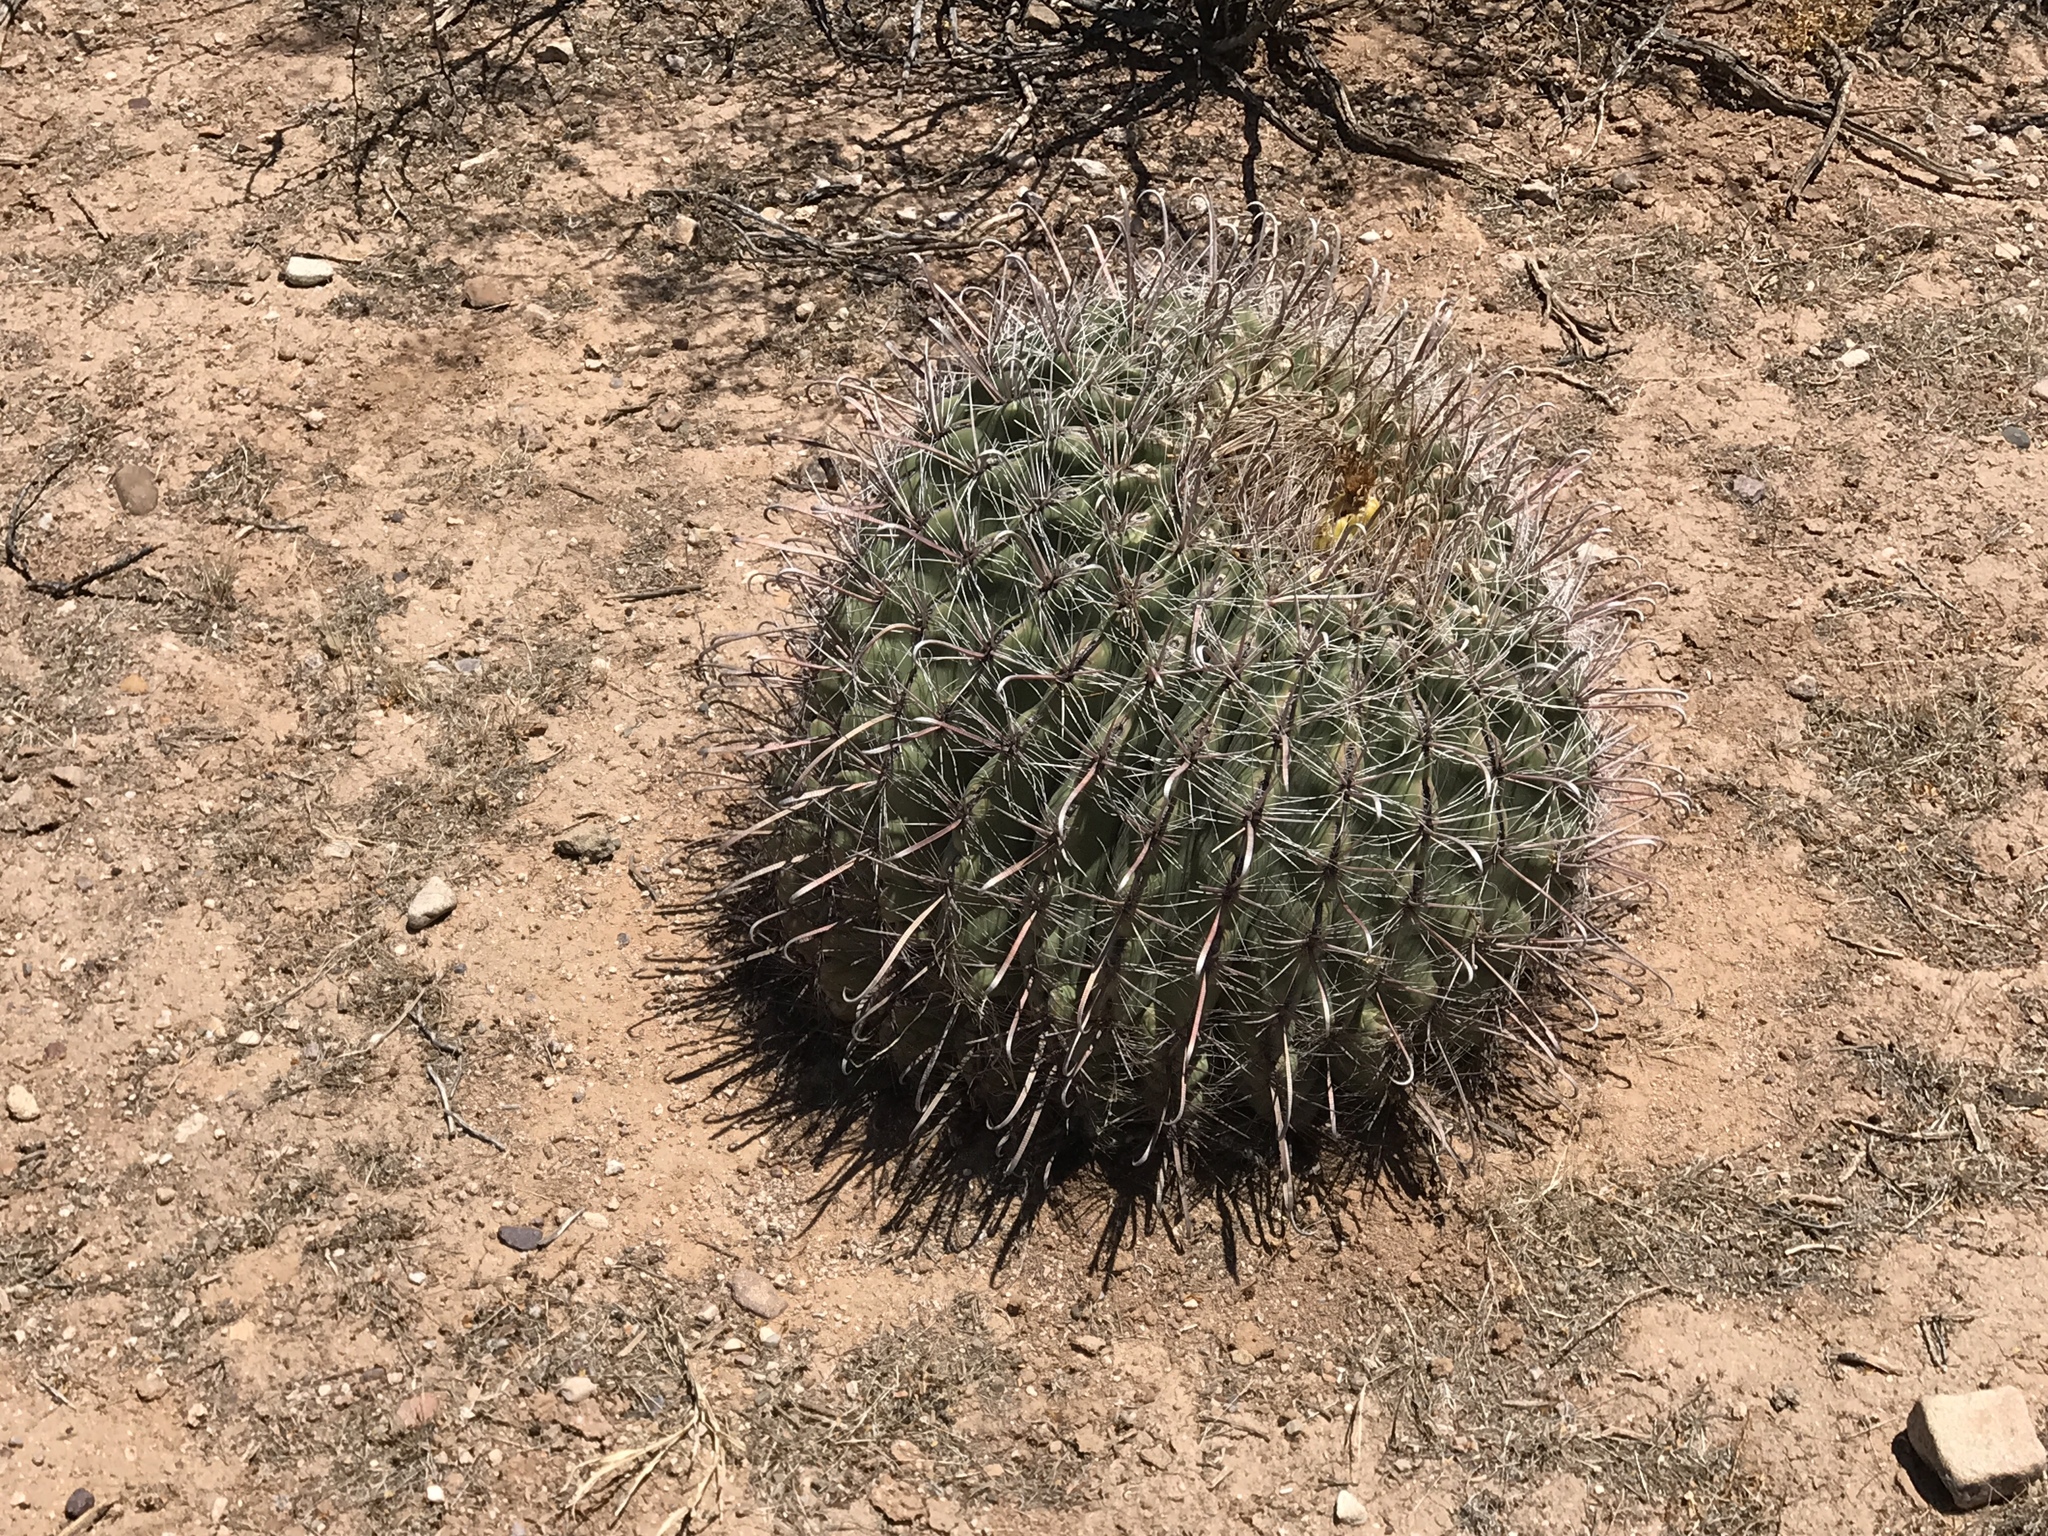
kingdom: Plantae
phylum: Tracheophyta
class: Magnoliopsida
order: Caryophyllales
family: Cactaceae
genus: Ferocactus
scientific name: Ferocactus wislizeni
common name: Candy barrel cactus
